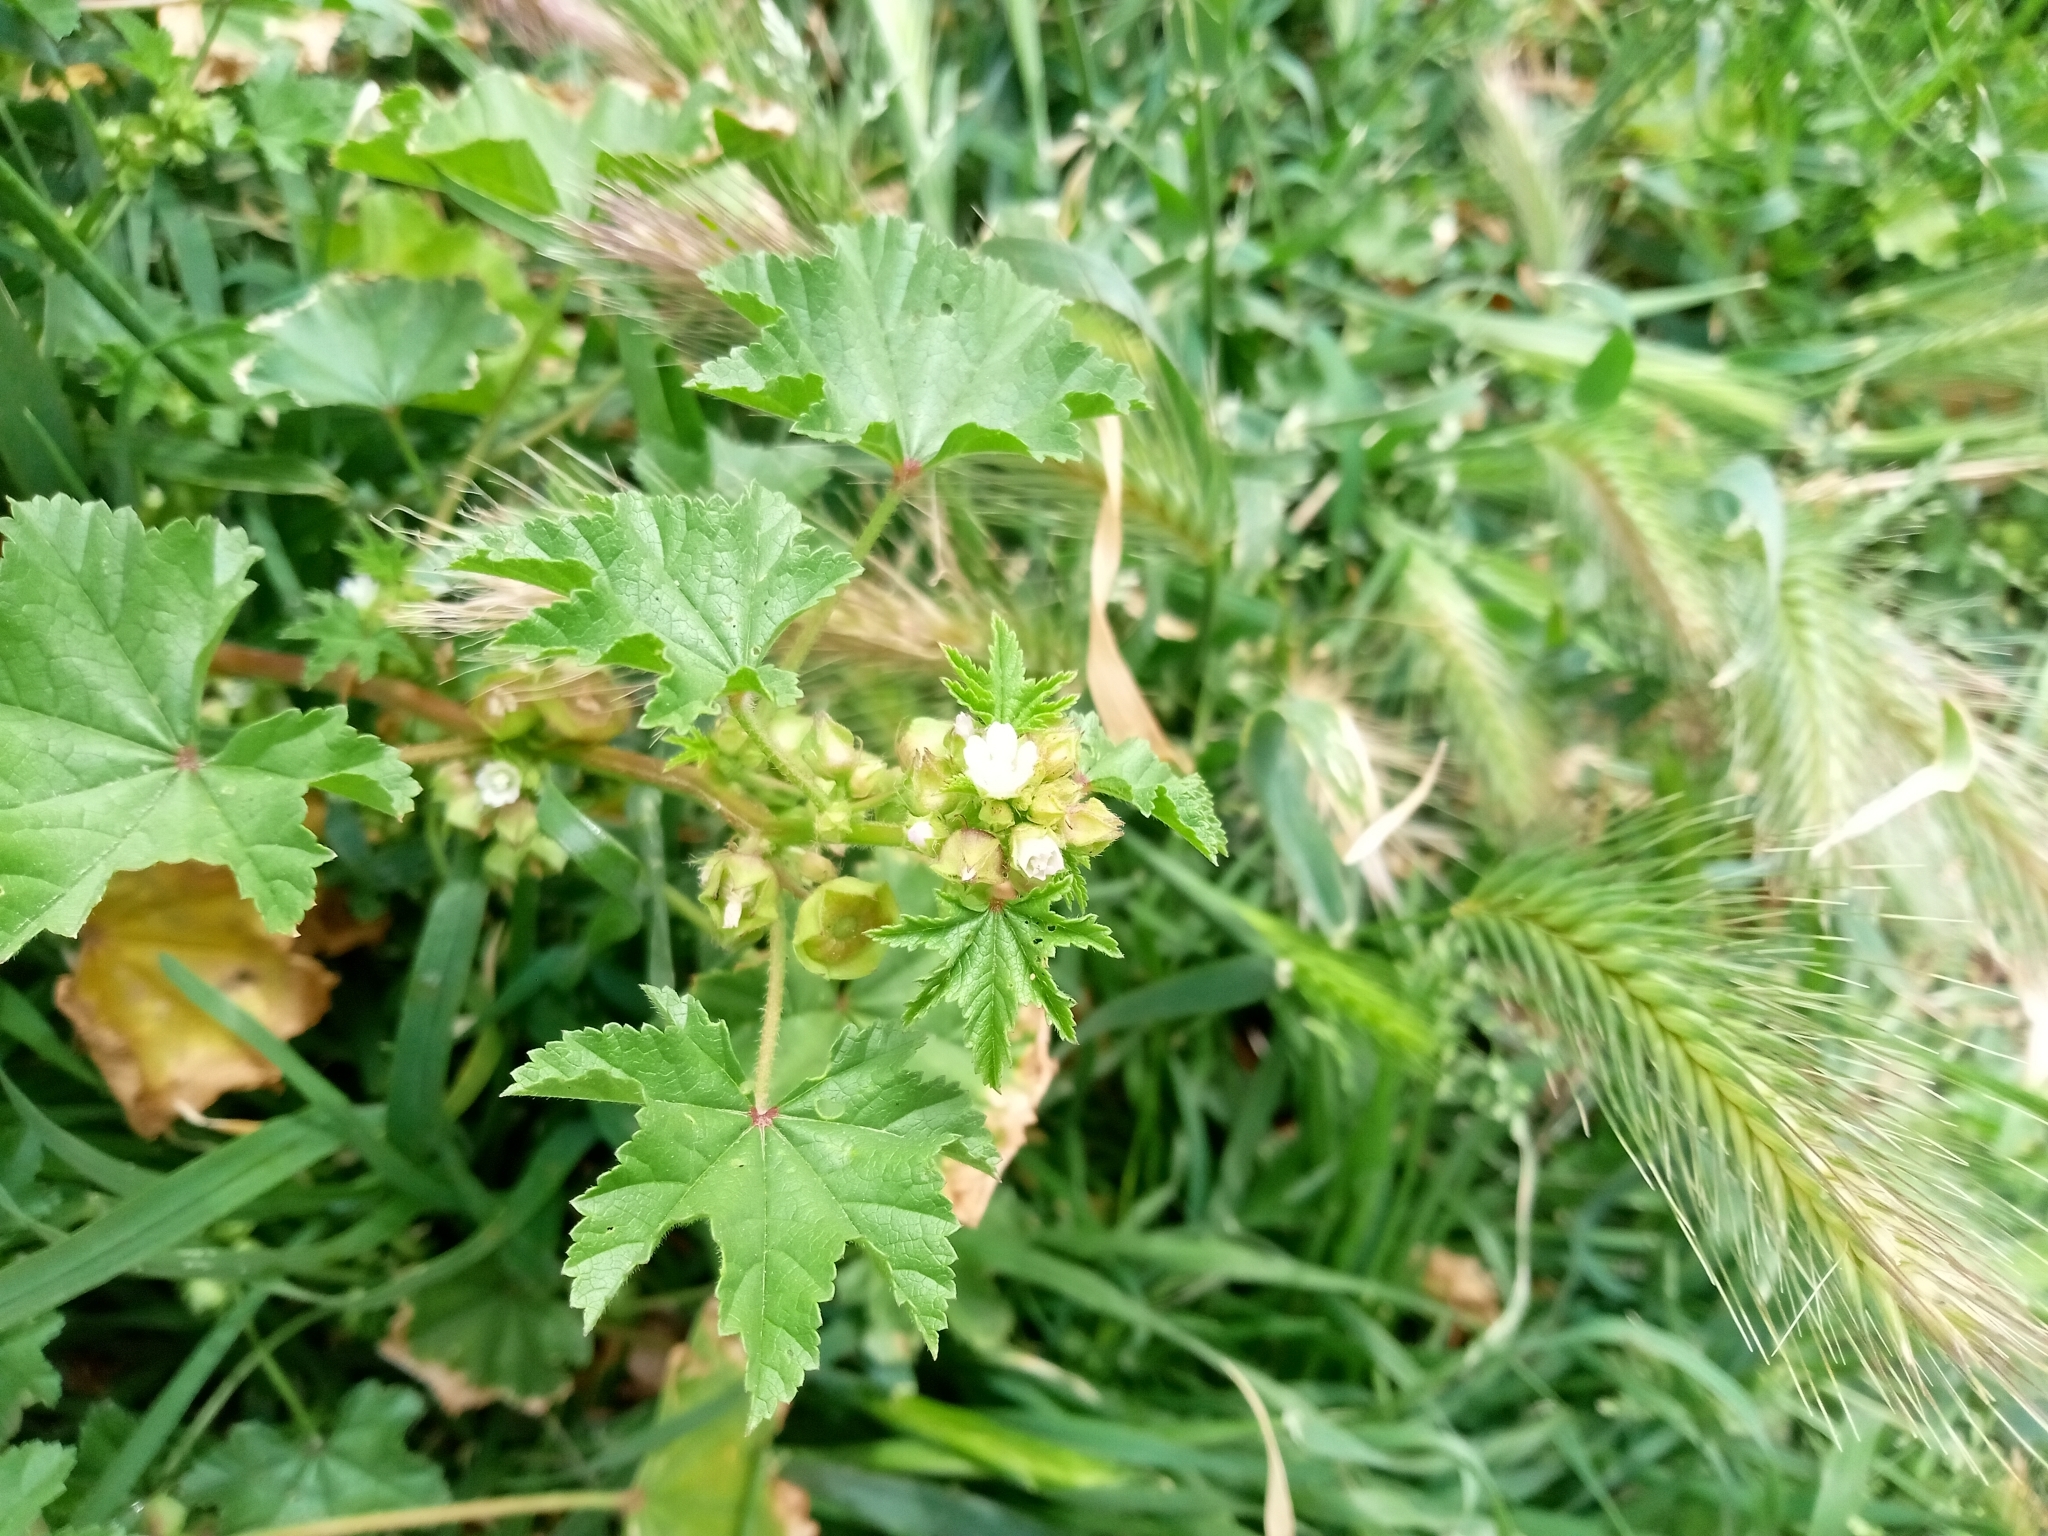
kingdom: Plantae
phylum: Tracheophyta
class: Magnoliopsida
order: Malvales
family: Malvaceae
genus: Malva
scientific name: Malva parviflora
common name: Least mallow
